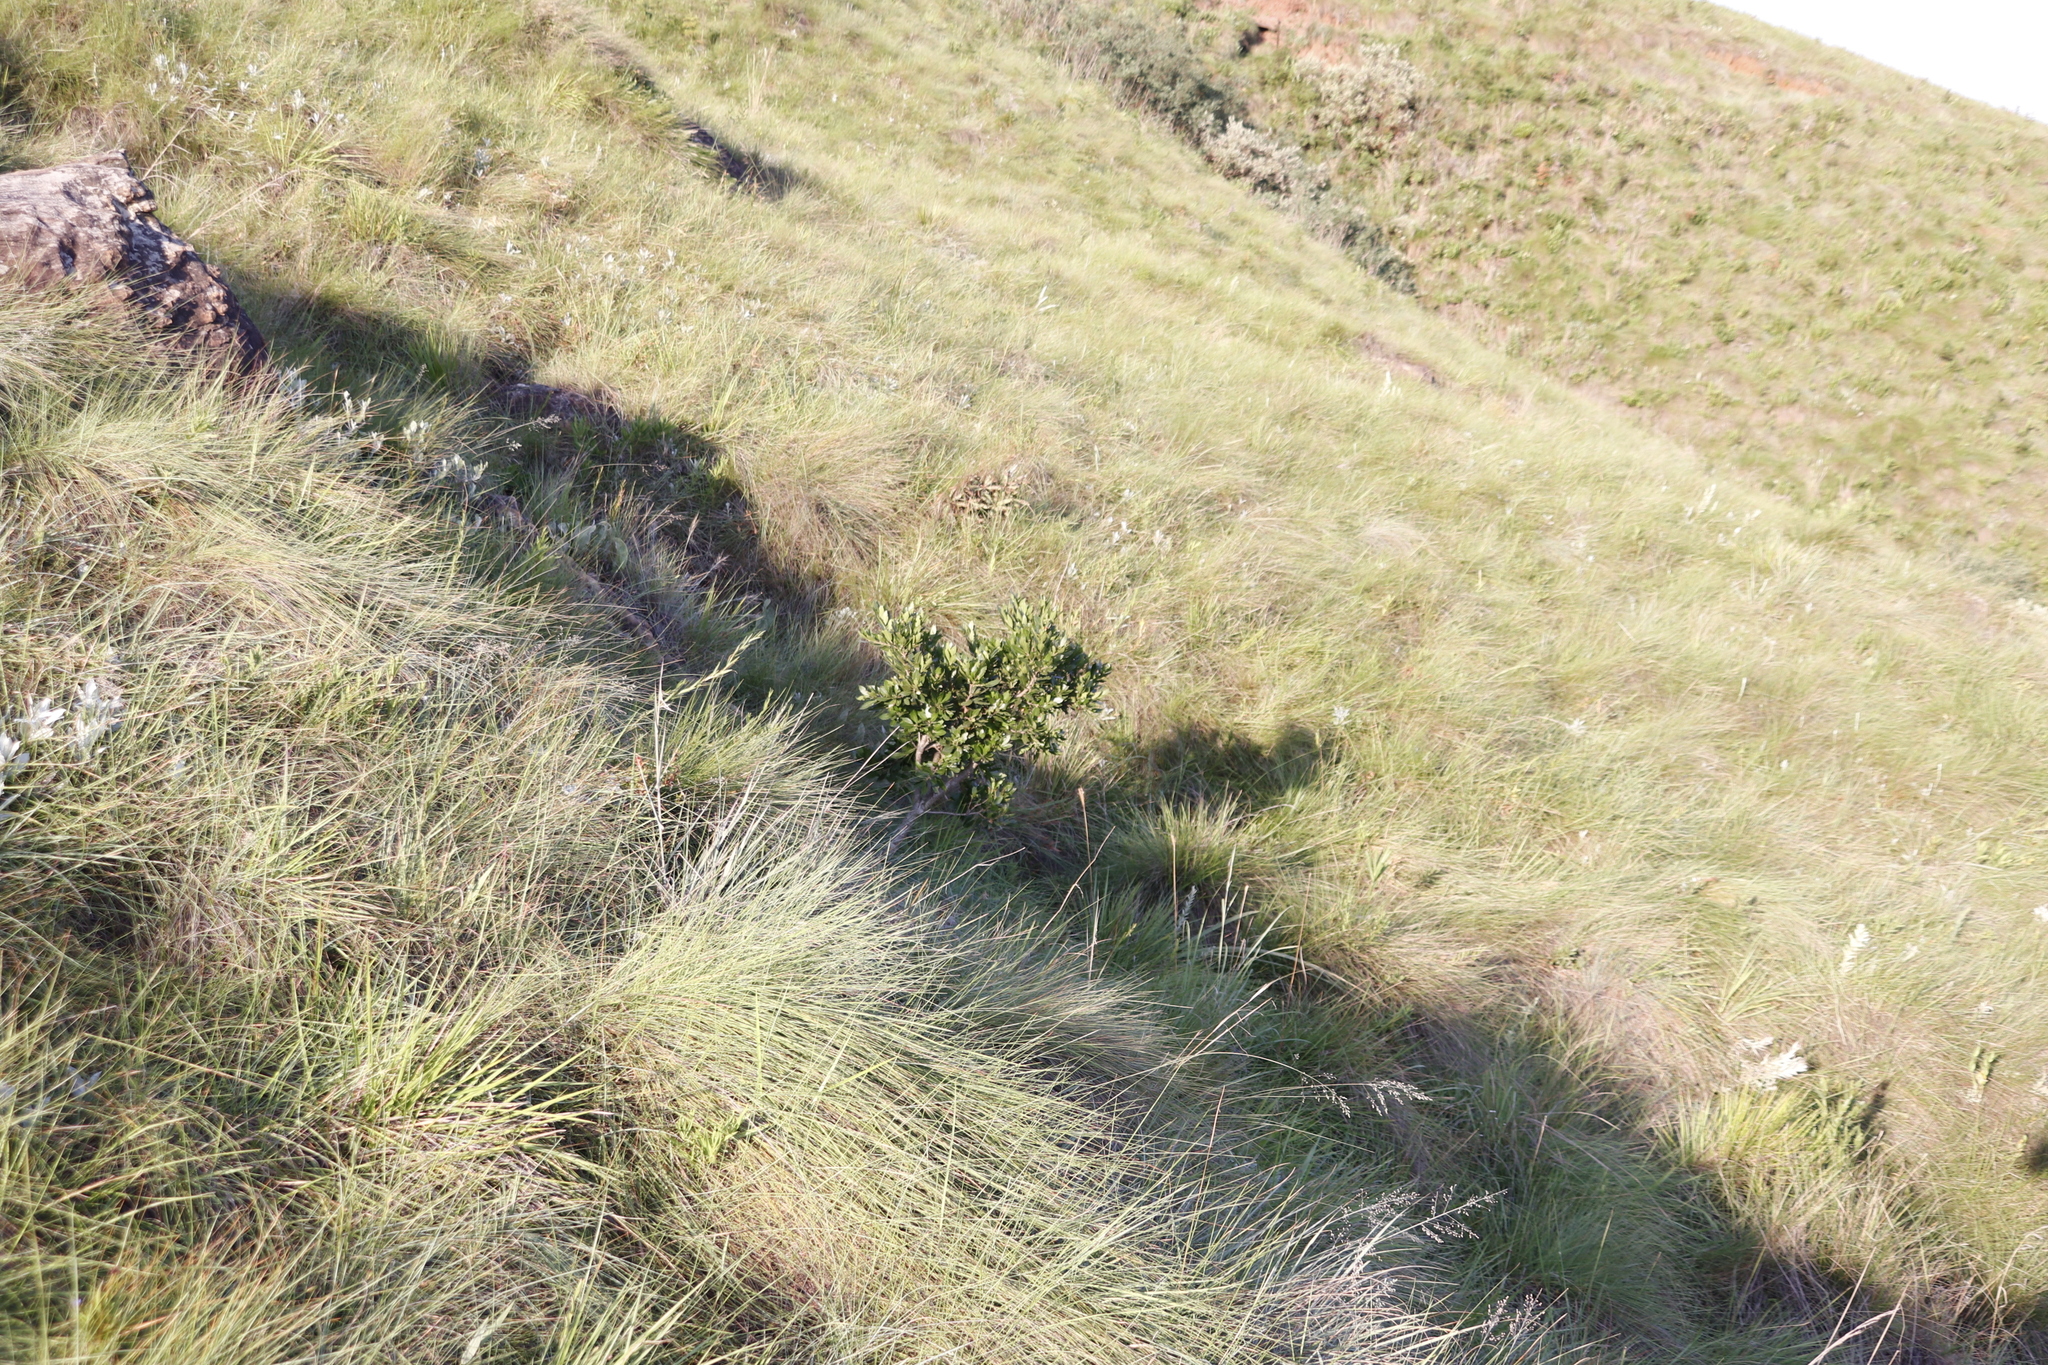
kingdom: Plantae
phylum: Tracheophyta
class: Magnoliopsida
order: Fagales
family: Myricaceae
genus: Morella
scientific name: Morella pilulifera
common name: Broad-leaved waxberry
